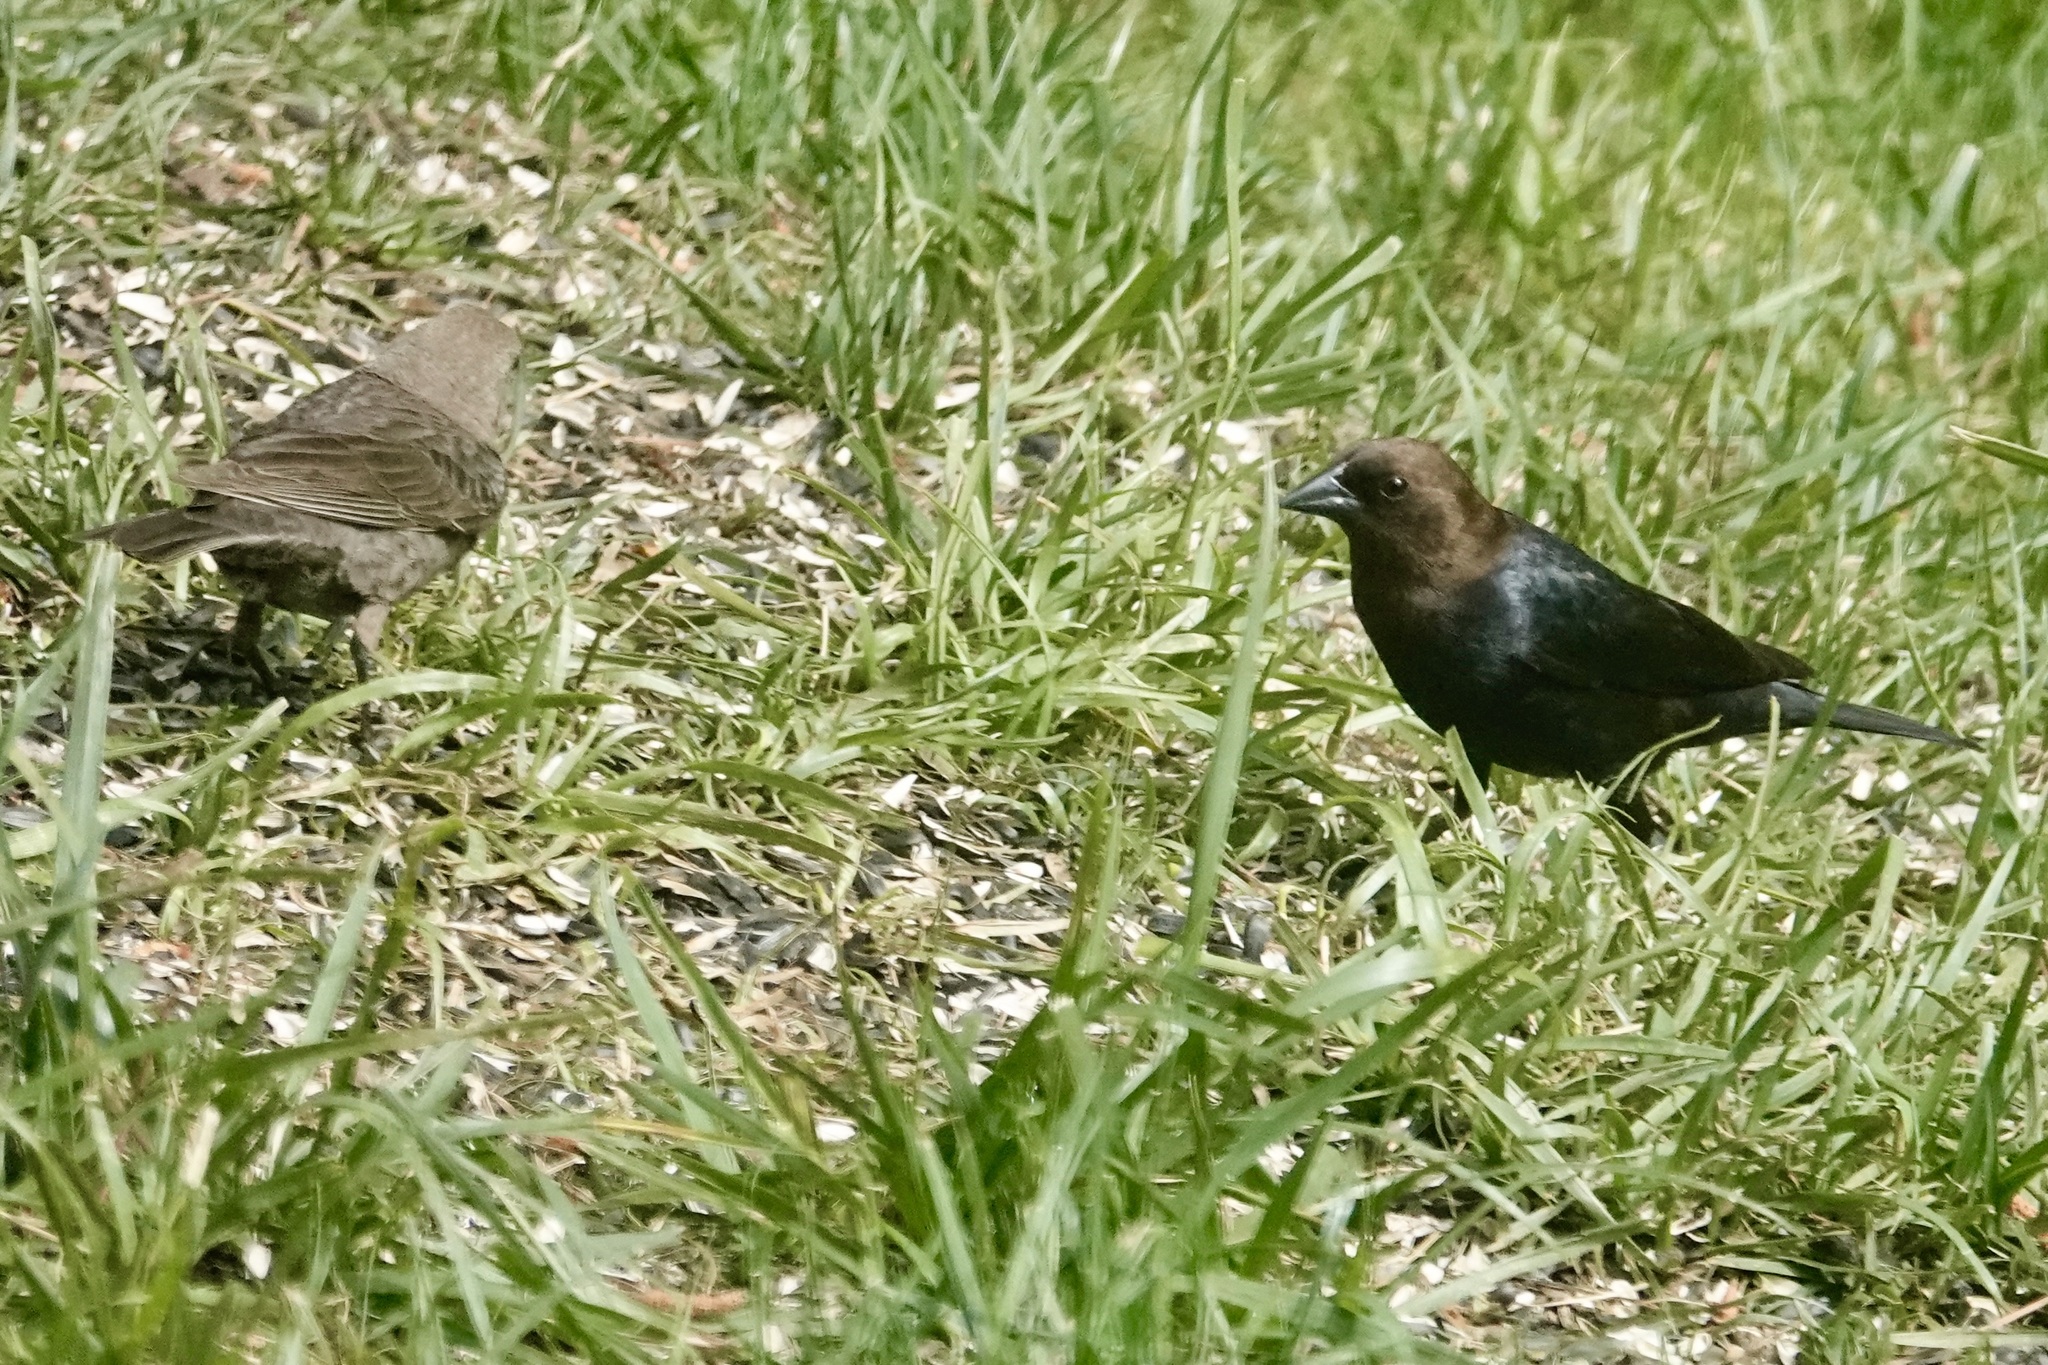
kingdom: Animalia
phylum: Chordata
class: Aves
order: Passeriformes
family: Icteridae
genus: Molothrus
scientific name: Molothrus ater
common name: Brown-headed cowbird
